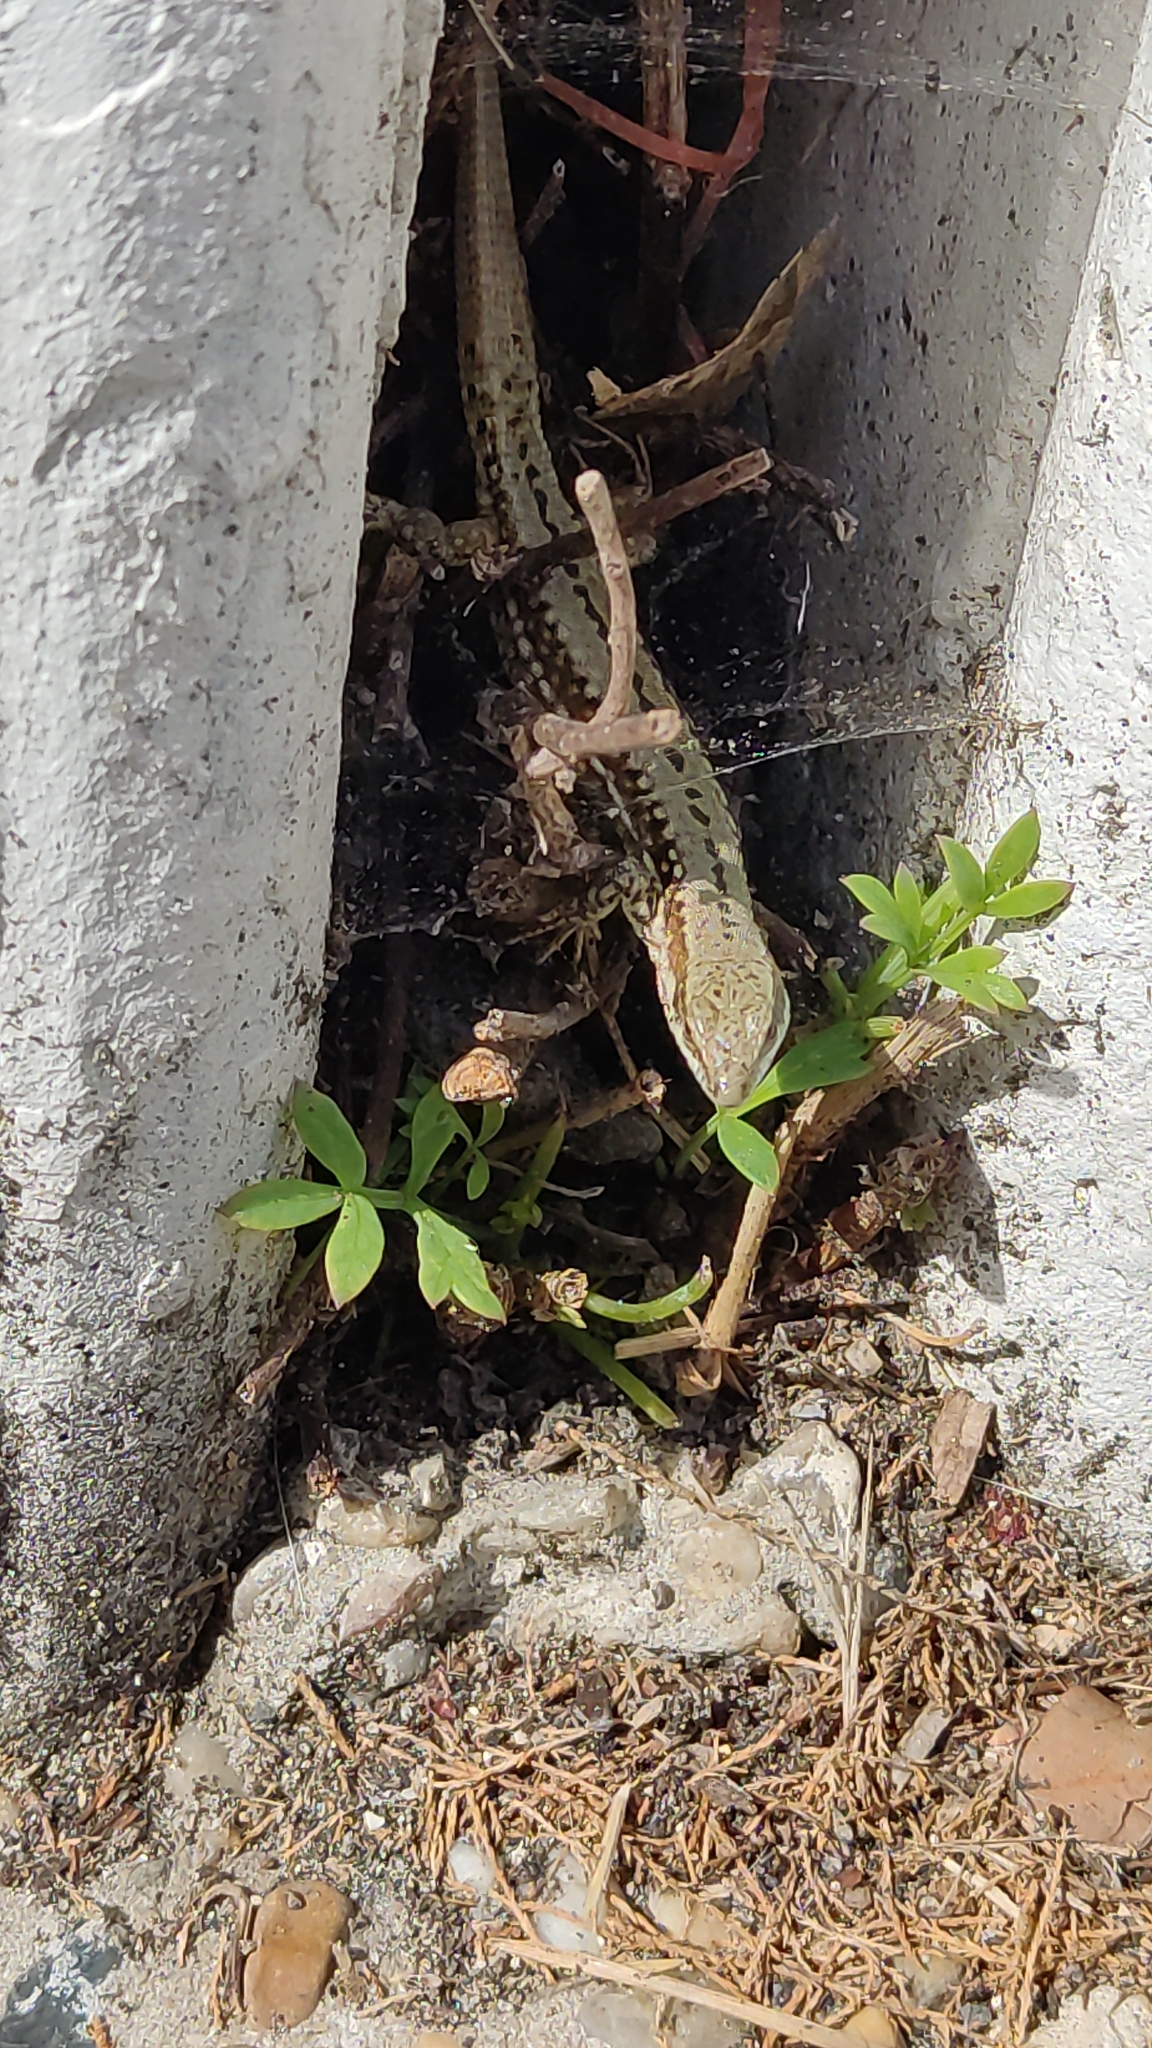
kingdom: Animalia
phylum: Chordata
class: Squamata
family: Lacertidae
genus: Podarcis
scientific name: Podarcis muralis
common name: Common wall lizard
